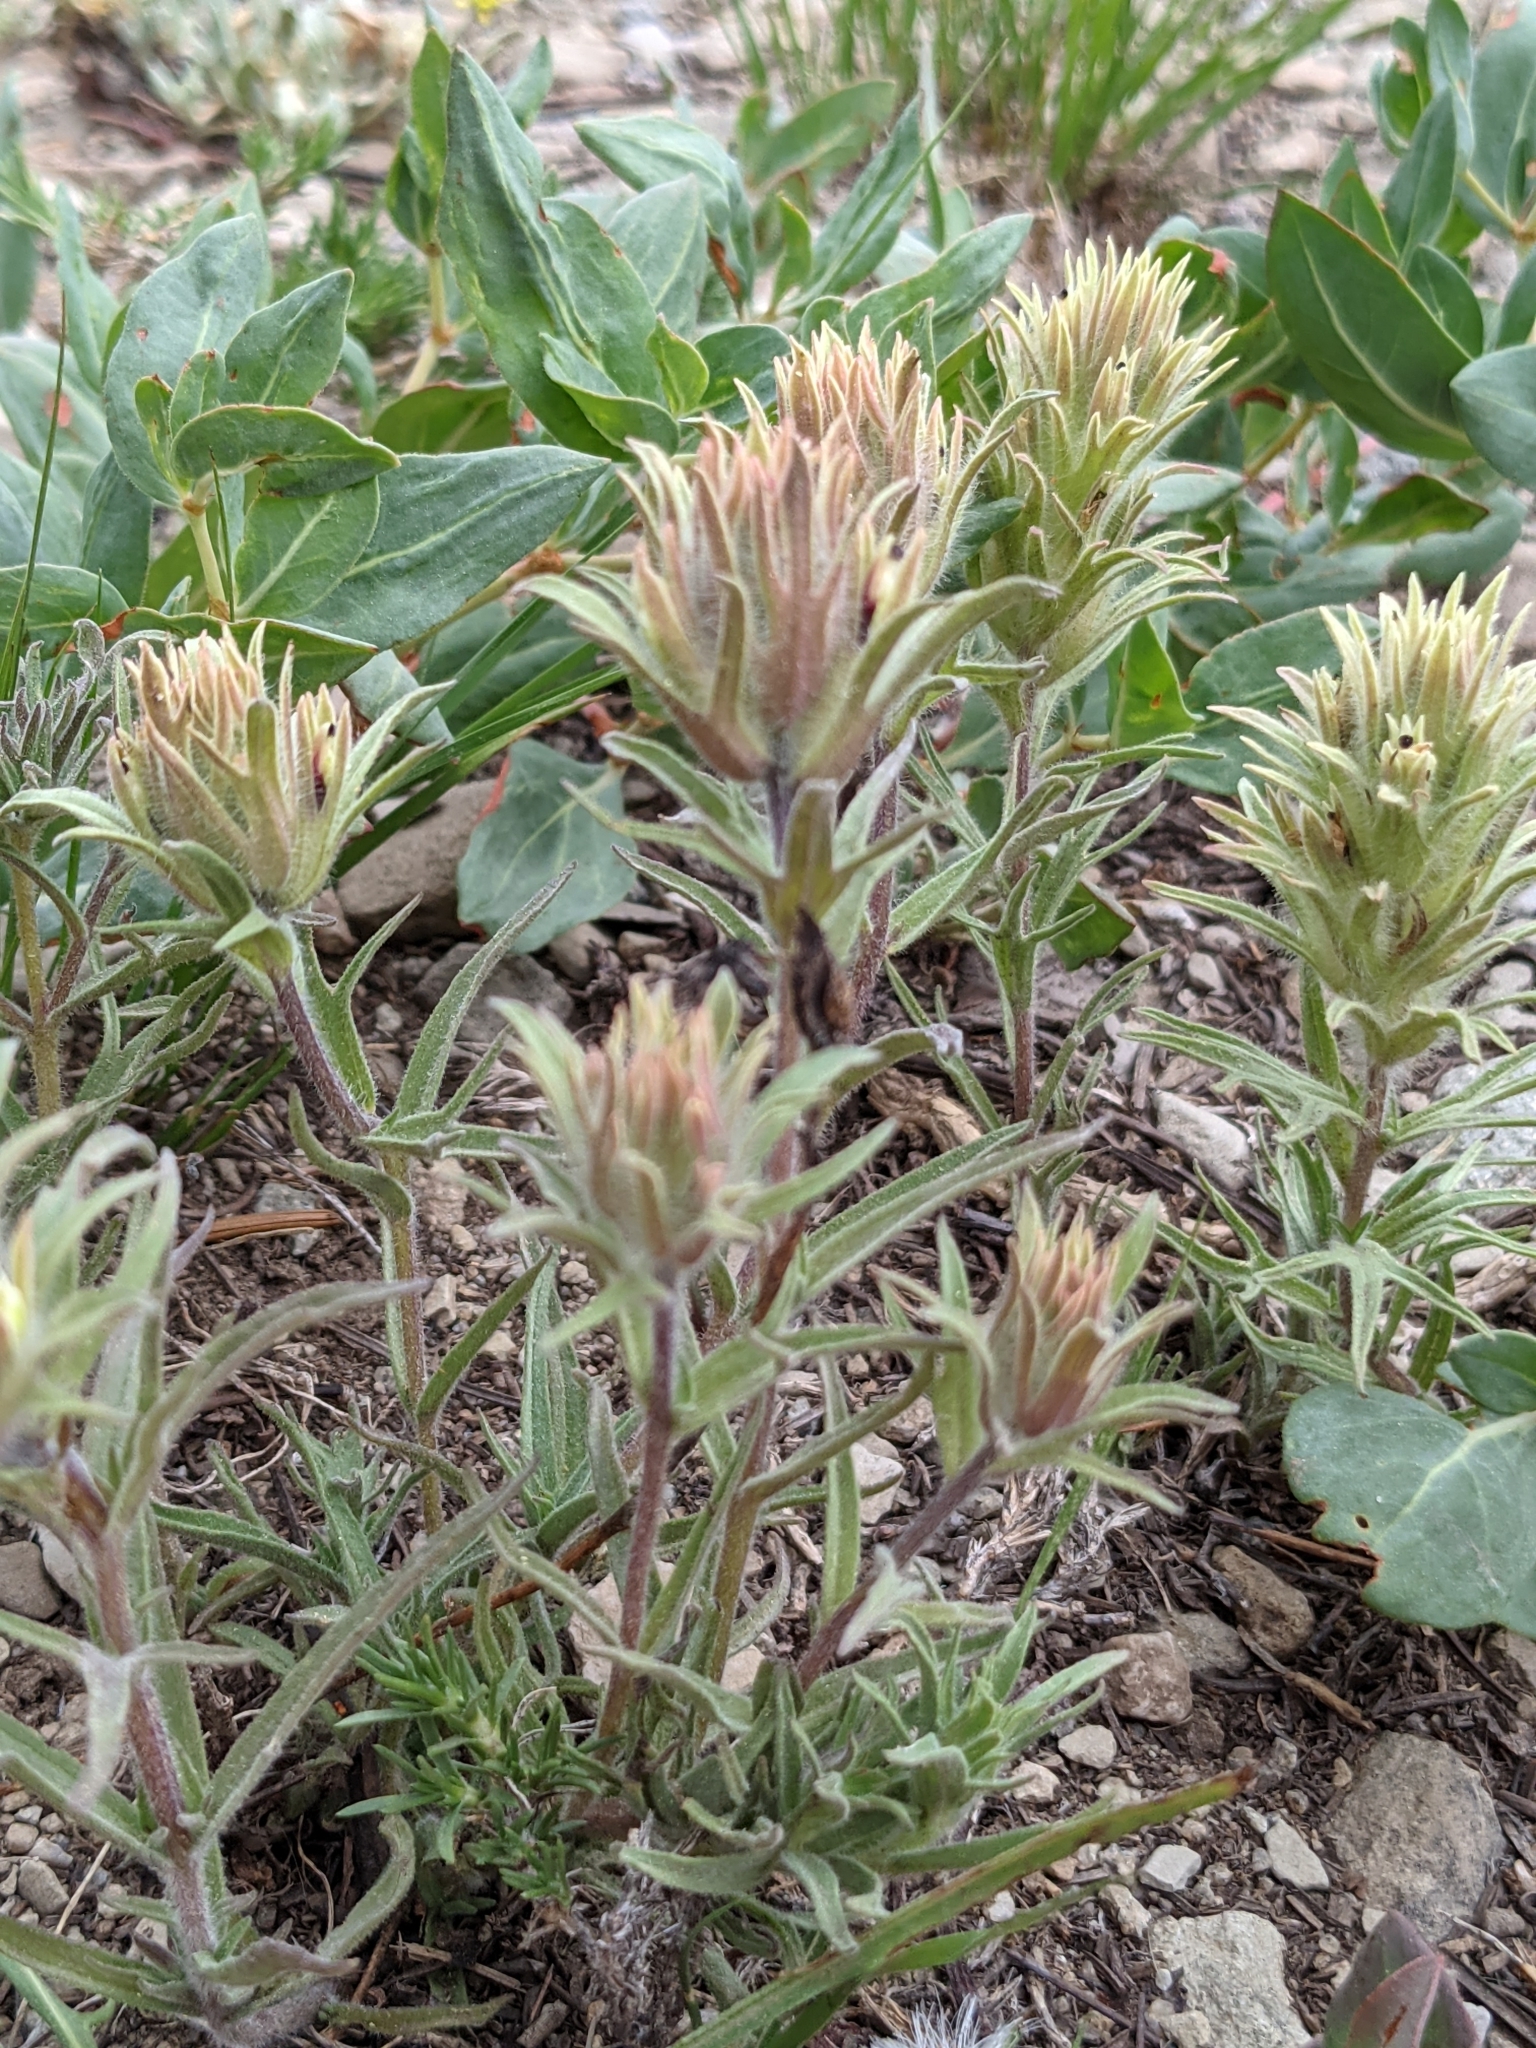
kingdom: Plantae
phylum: Tracheophyta
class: Magnoliopsida
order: Lamiales
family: Orobanchaceae
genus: Castilleja
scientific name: Castilleja nana
